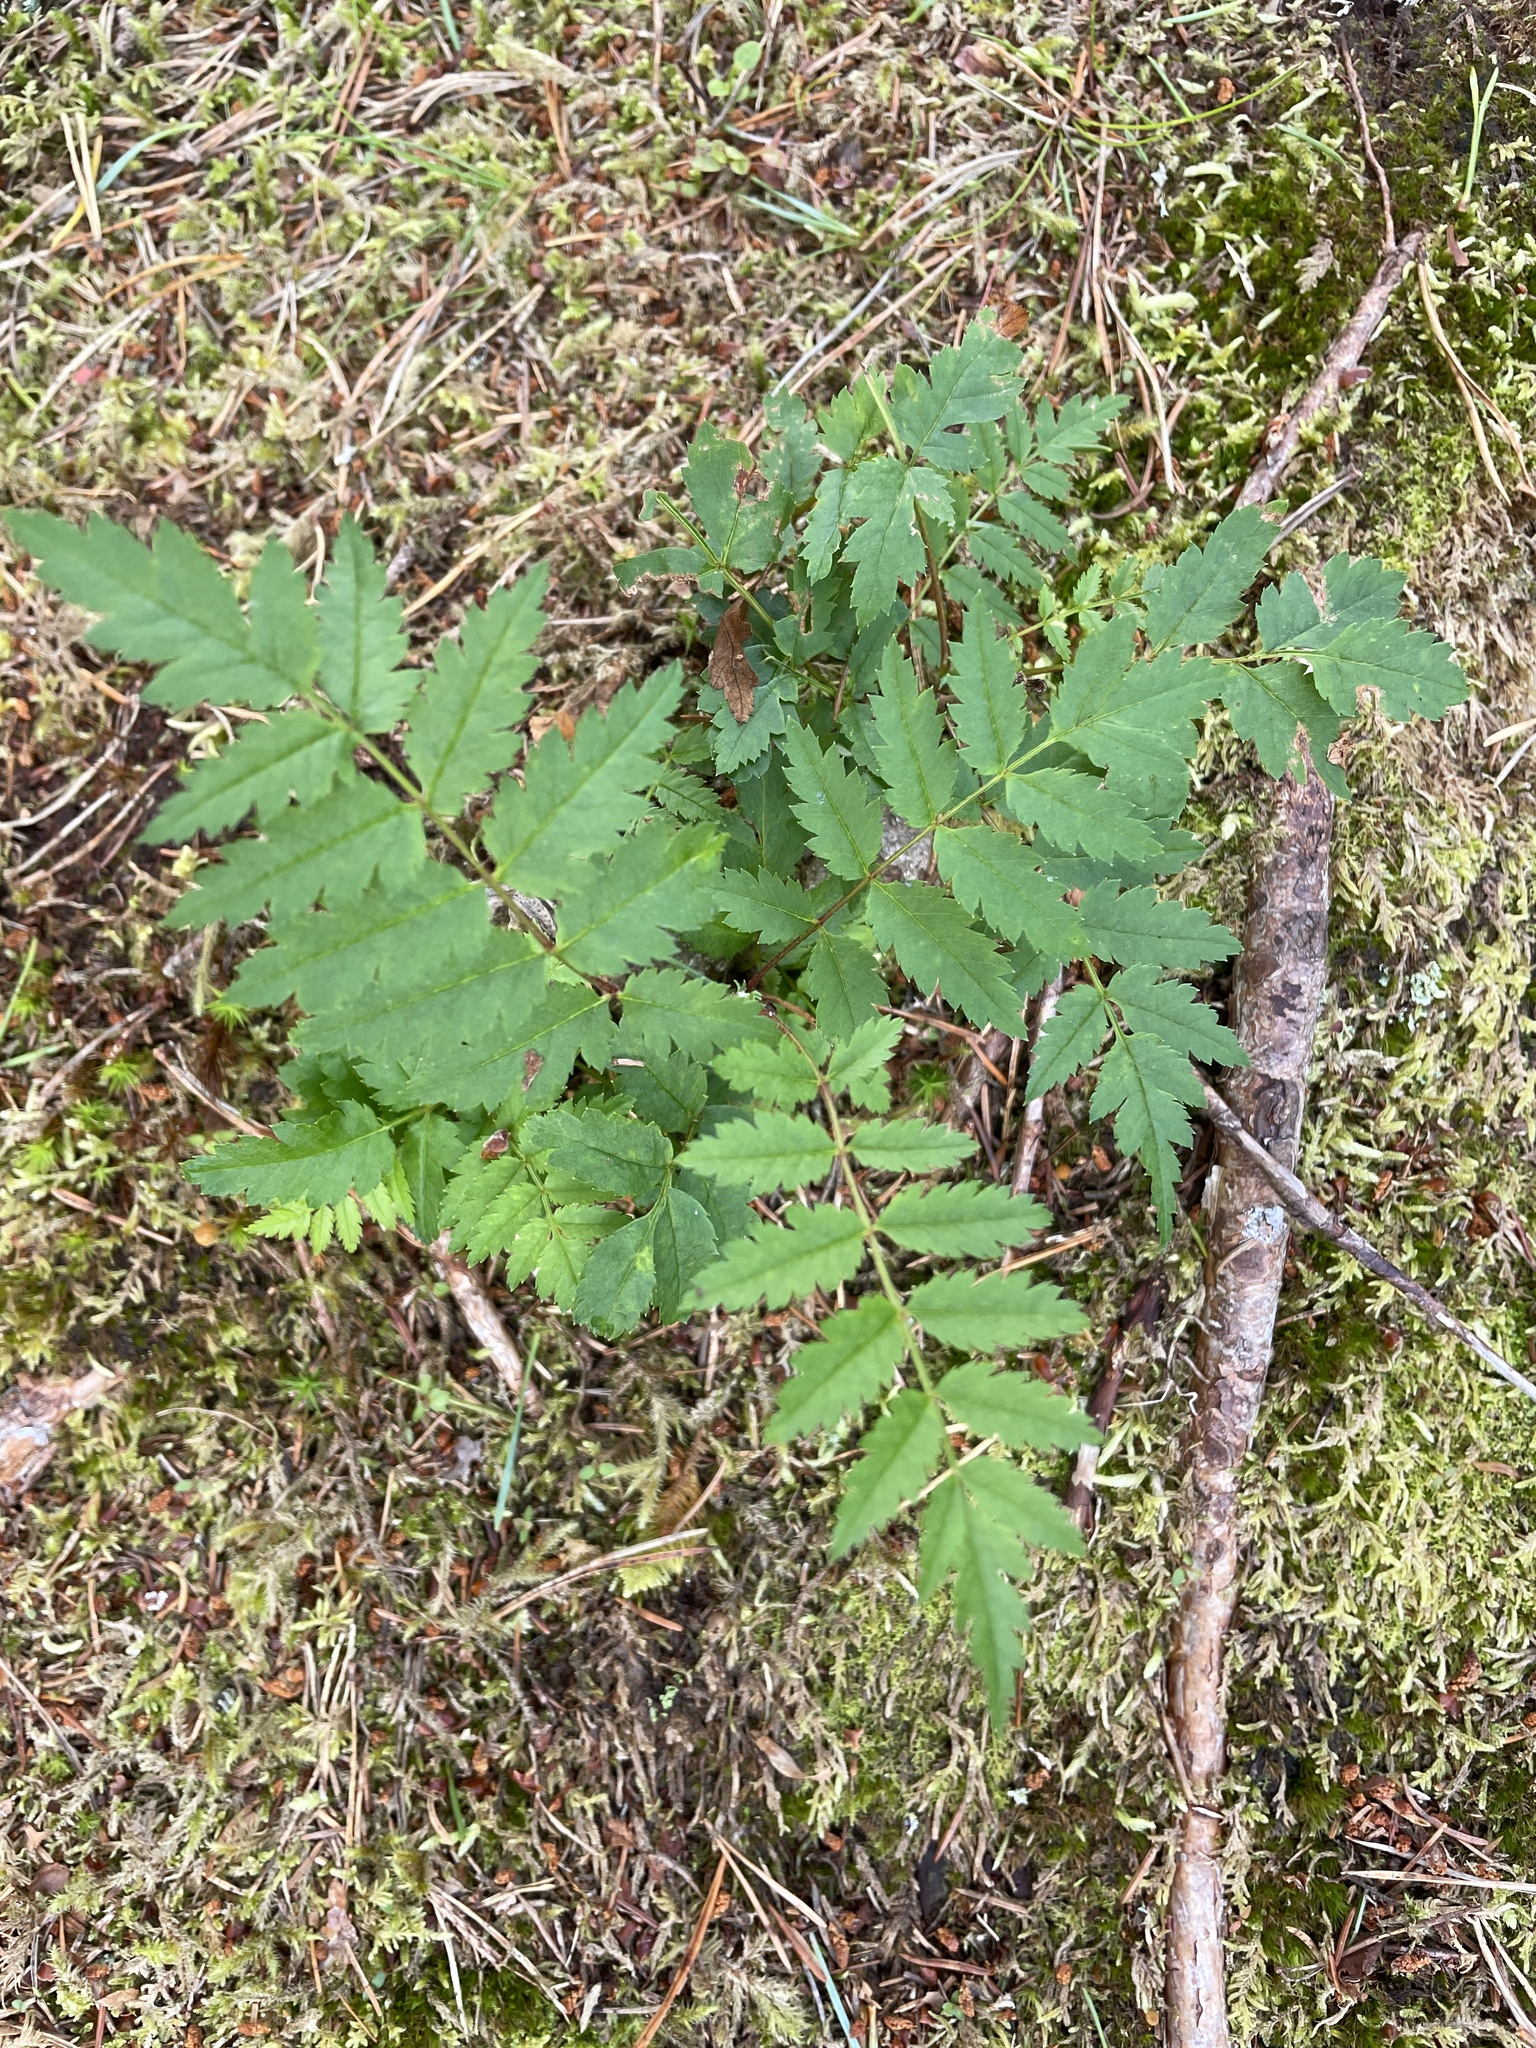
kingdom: Plantae
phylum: Tracheophyta
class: Magnoliopsida
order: Rosales
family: Rosaceae
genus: Sorbus
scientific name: Sorbus aucuparia
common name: Rowan
